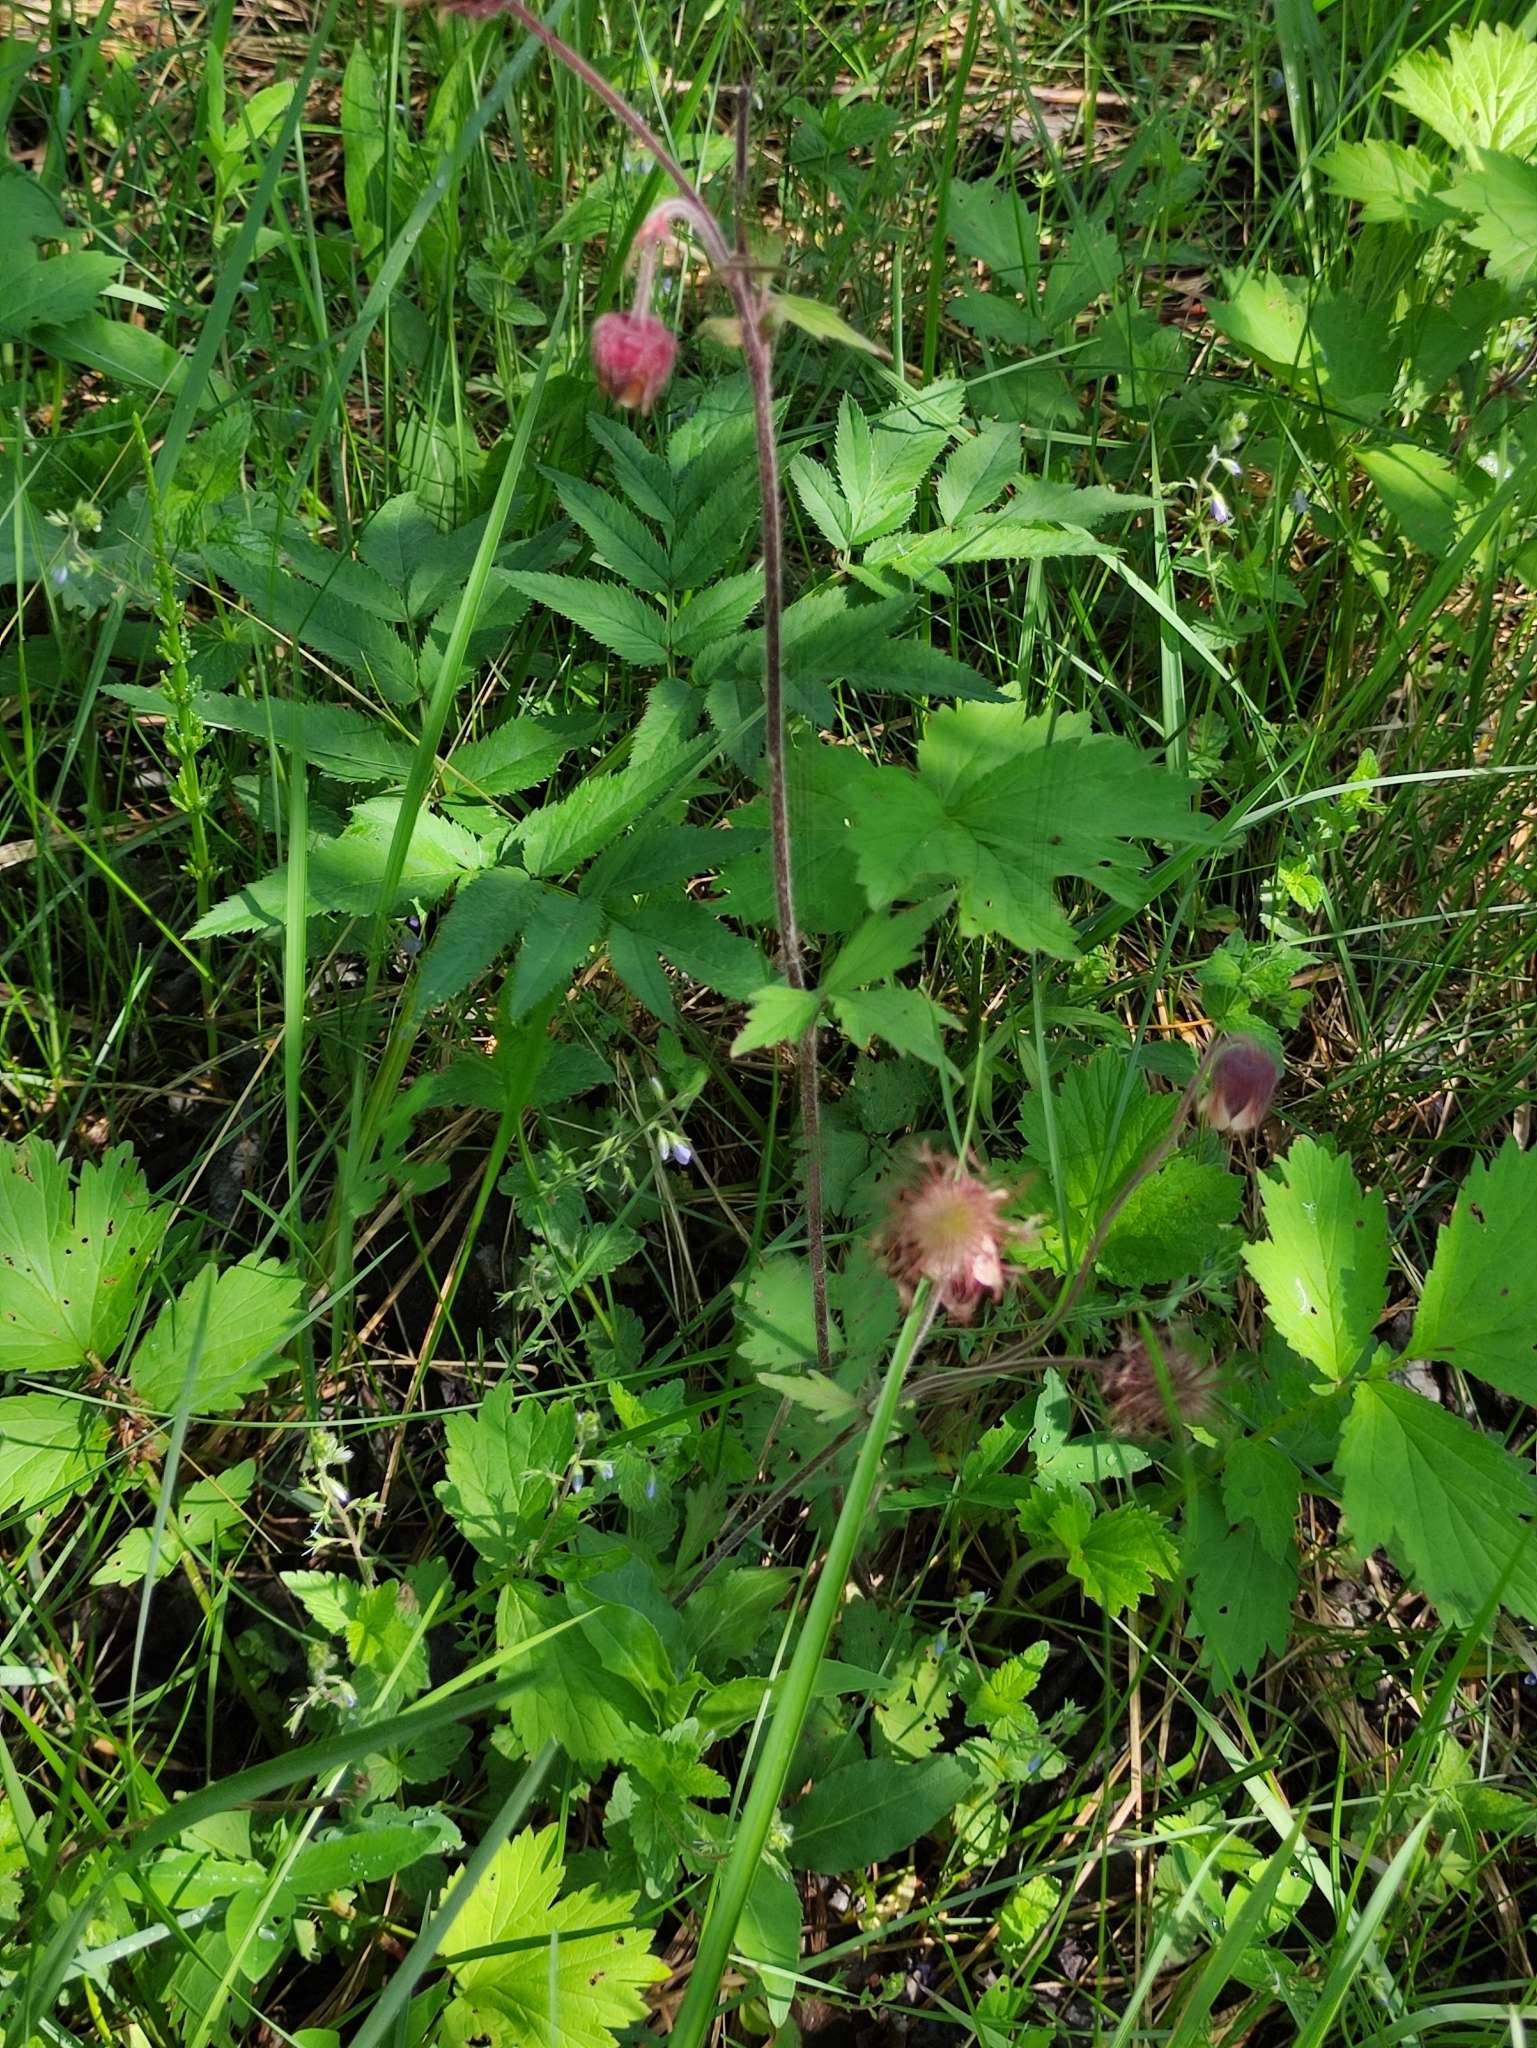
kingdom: Plantae
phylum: Tracheophyta
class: Magnoliopsida
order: Rosales
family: Rosaceae
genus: Geum
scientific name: Geum rivale
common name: Water avens
